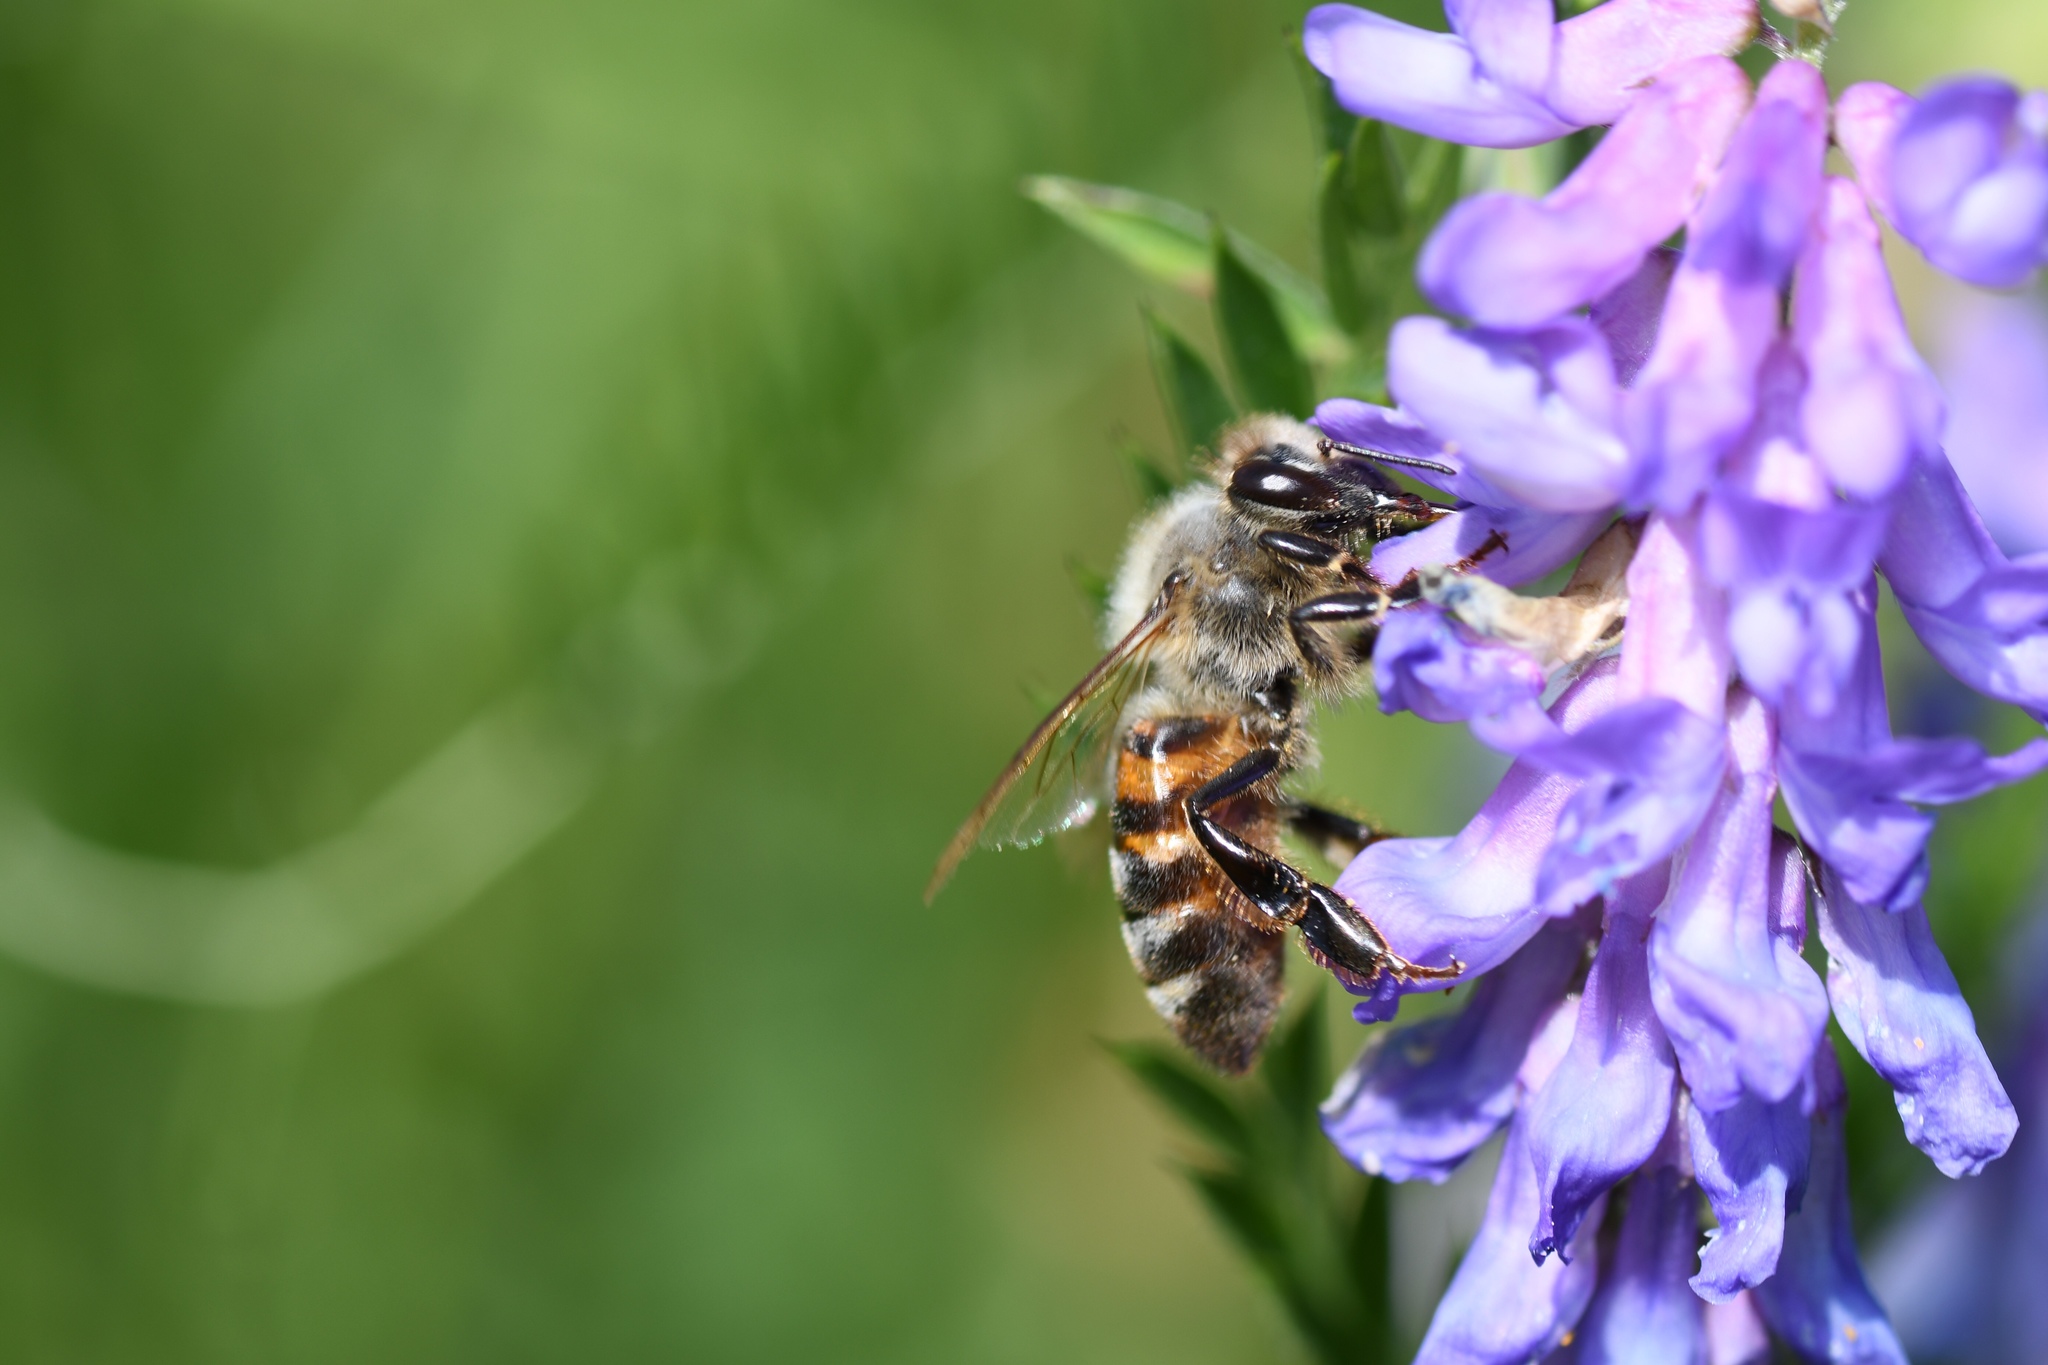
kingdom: Animalia
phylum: Arthropoda
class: Insecta
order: Hymenoptera
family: Apidae
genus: Apis
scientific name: Apis mellifera
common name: Honey bee
